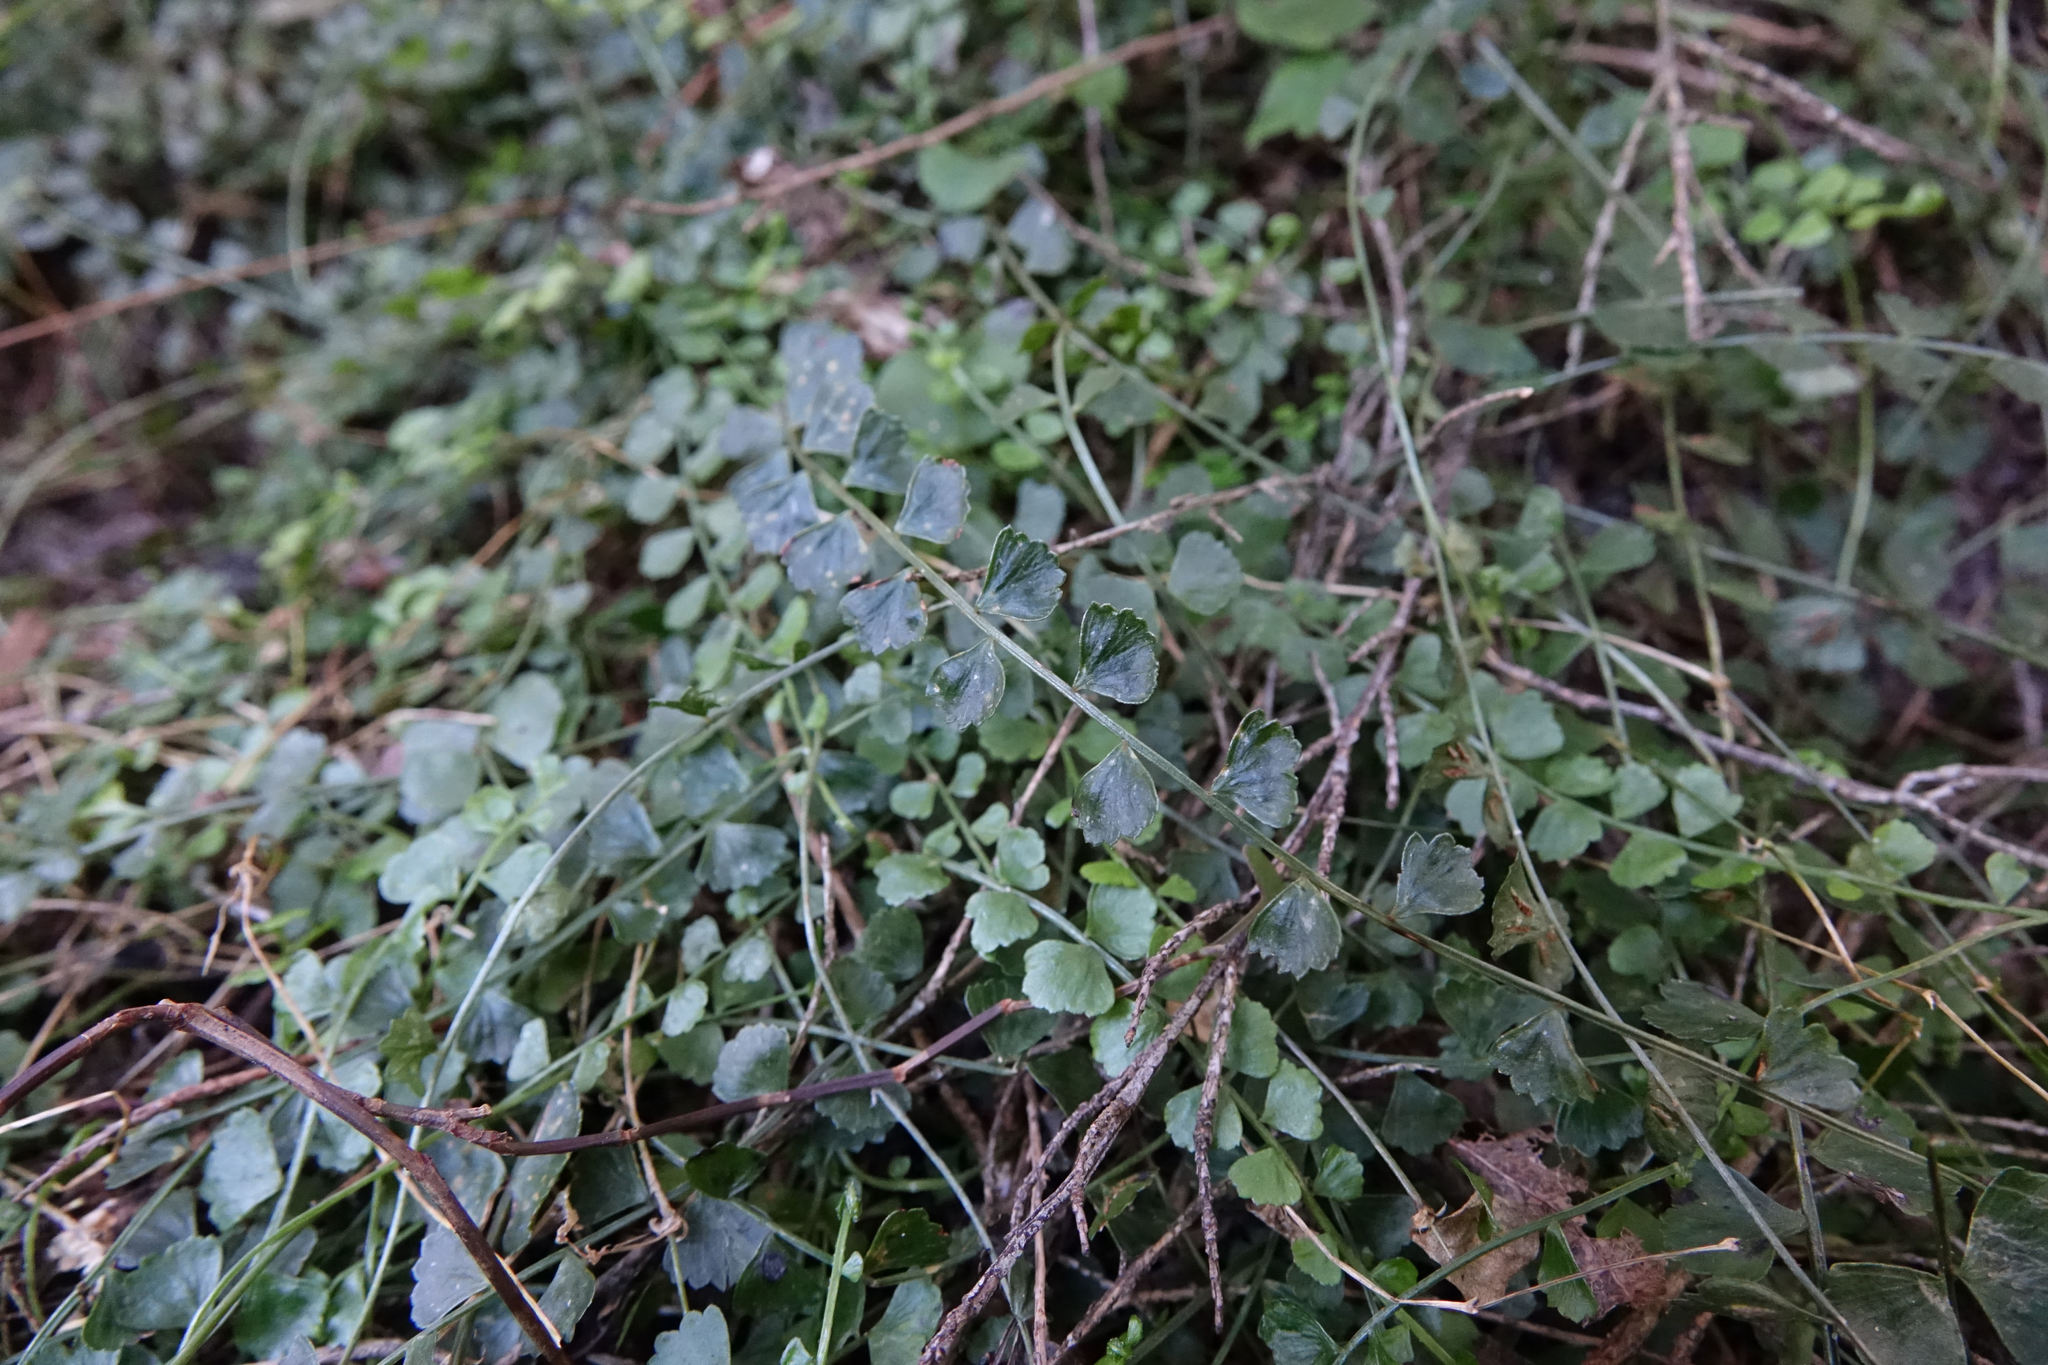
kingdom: Plantae
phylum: Tracheophyta
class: Polypodiopsida
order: Polypodiales
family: Aspleniaceae
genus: Asplenium
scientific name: Asplenium flabellifolium
